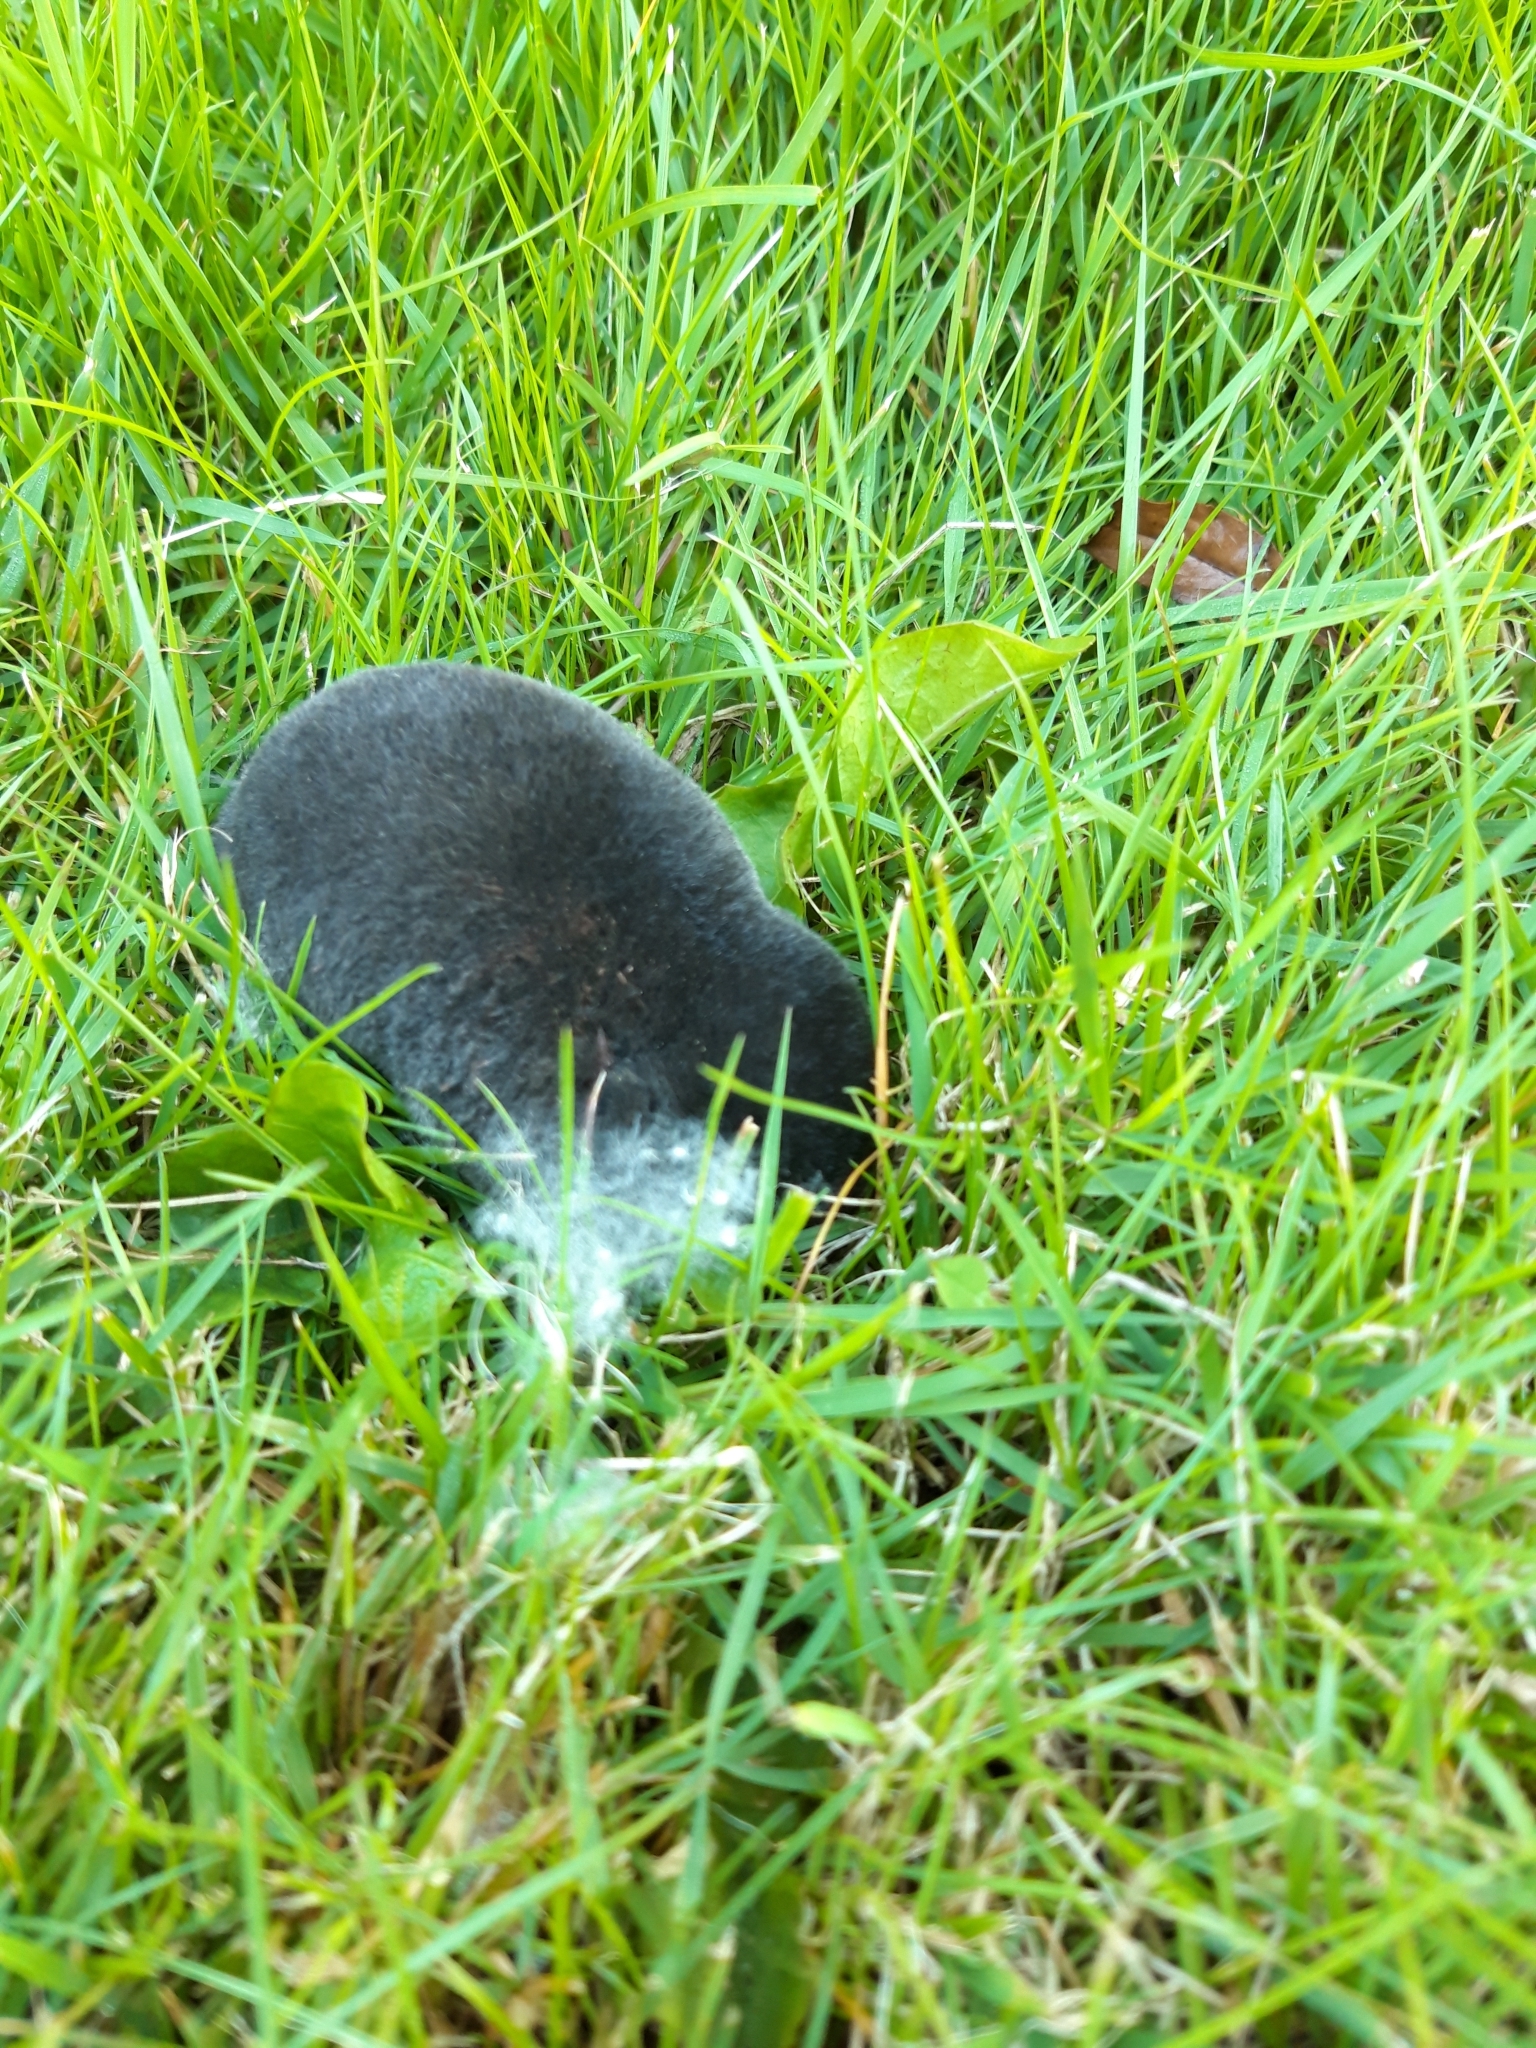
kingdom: Animalia
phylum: Chordata
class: Mammalia
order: Soricomorpha
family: Talpidae
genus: Talpa
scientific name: Talpa europaea
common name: European mole
